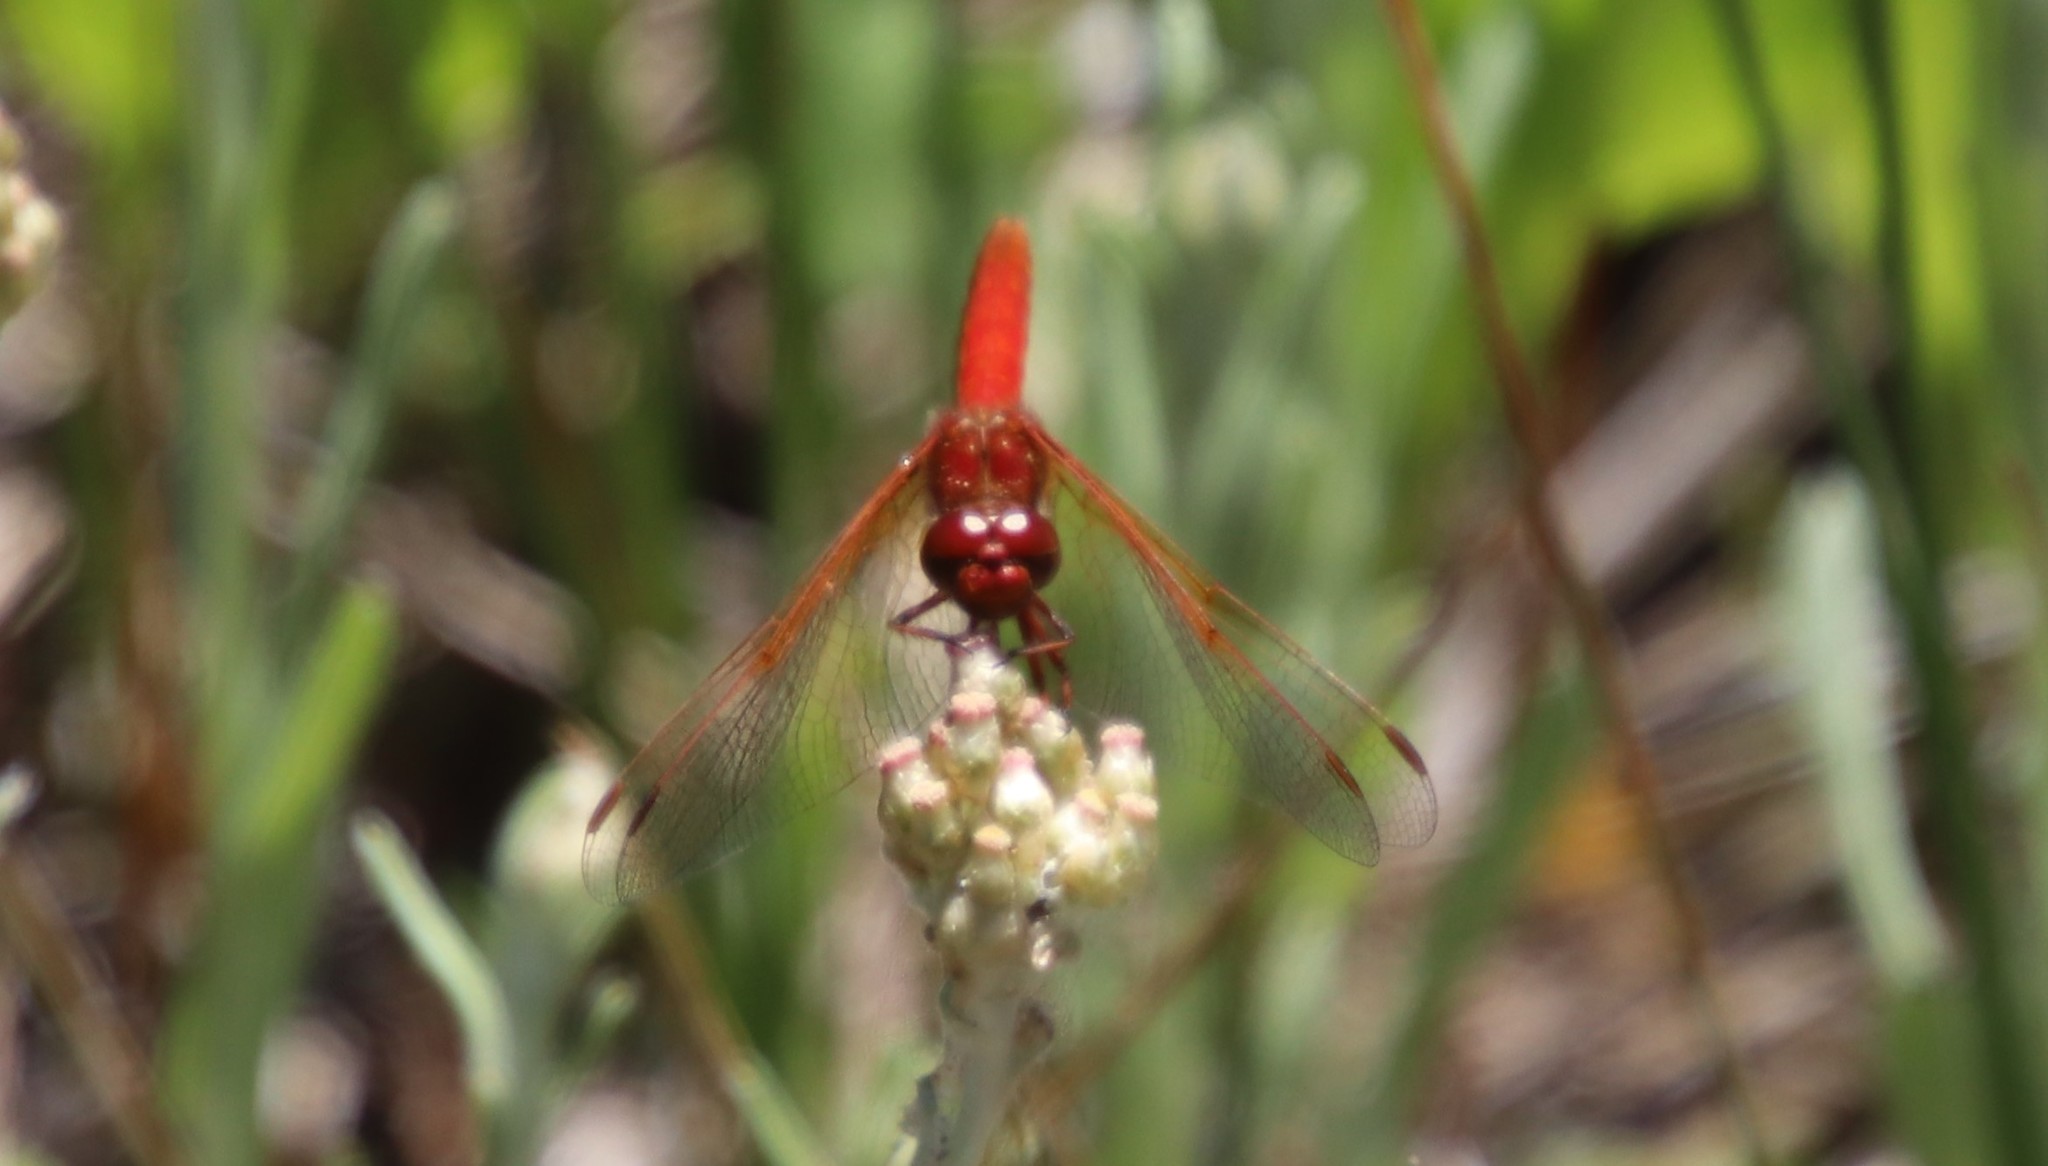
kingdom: Animalia
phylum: Arthropoda
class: Insecta
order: Odonata
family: Libellulidae
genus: Sympetrum
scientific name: Sympetrum illotum
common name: Cardinal meadowhawk
